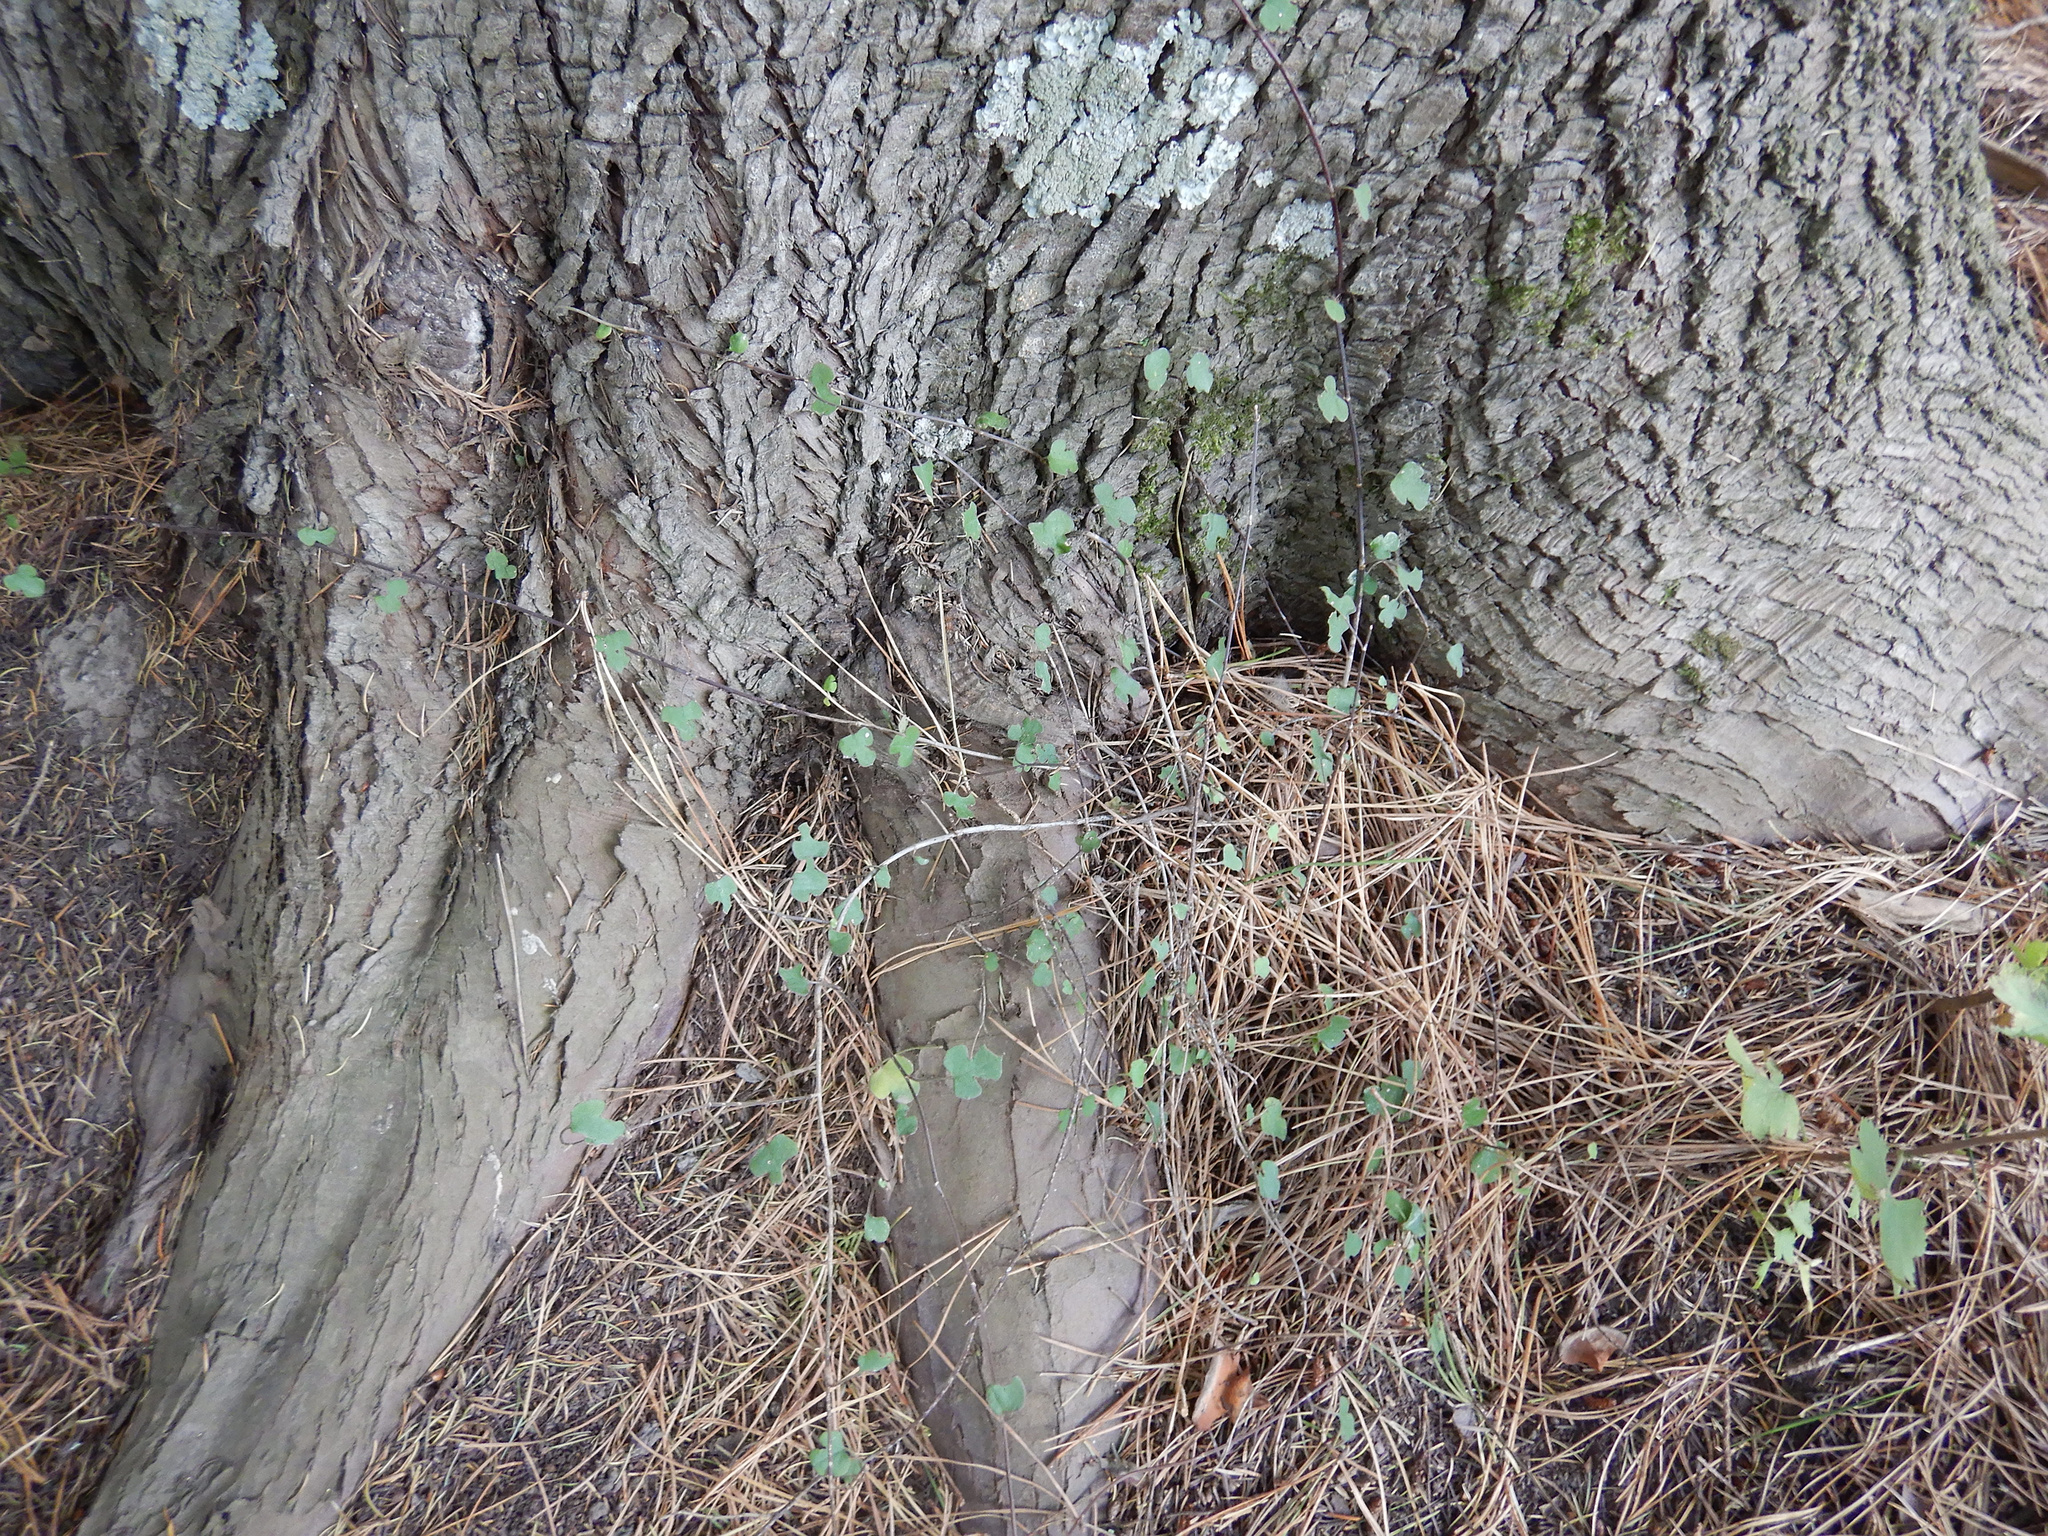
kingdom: Plantae
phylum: Tracheophyta
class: Magnoliopsida
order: Caryophyllales
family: Polygonaceae
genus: Muehlenbeckia
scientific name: Muehlenbeckia australis
